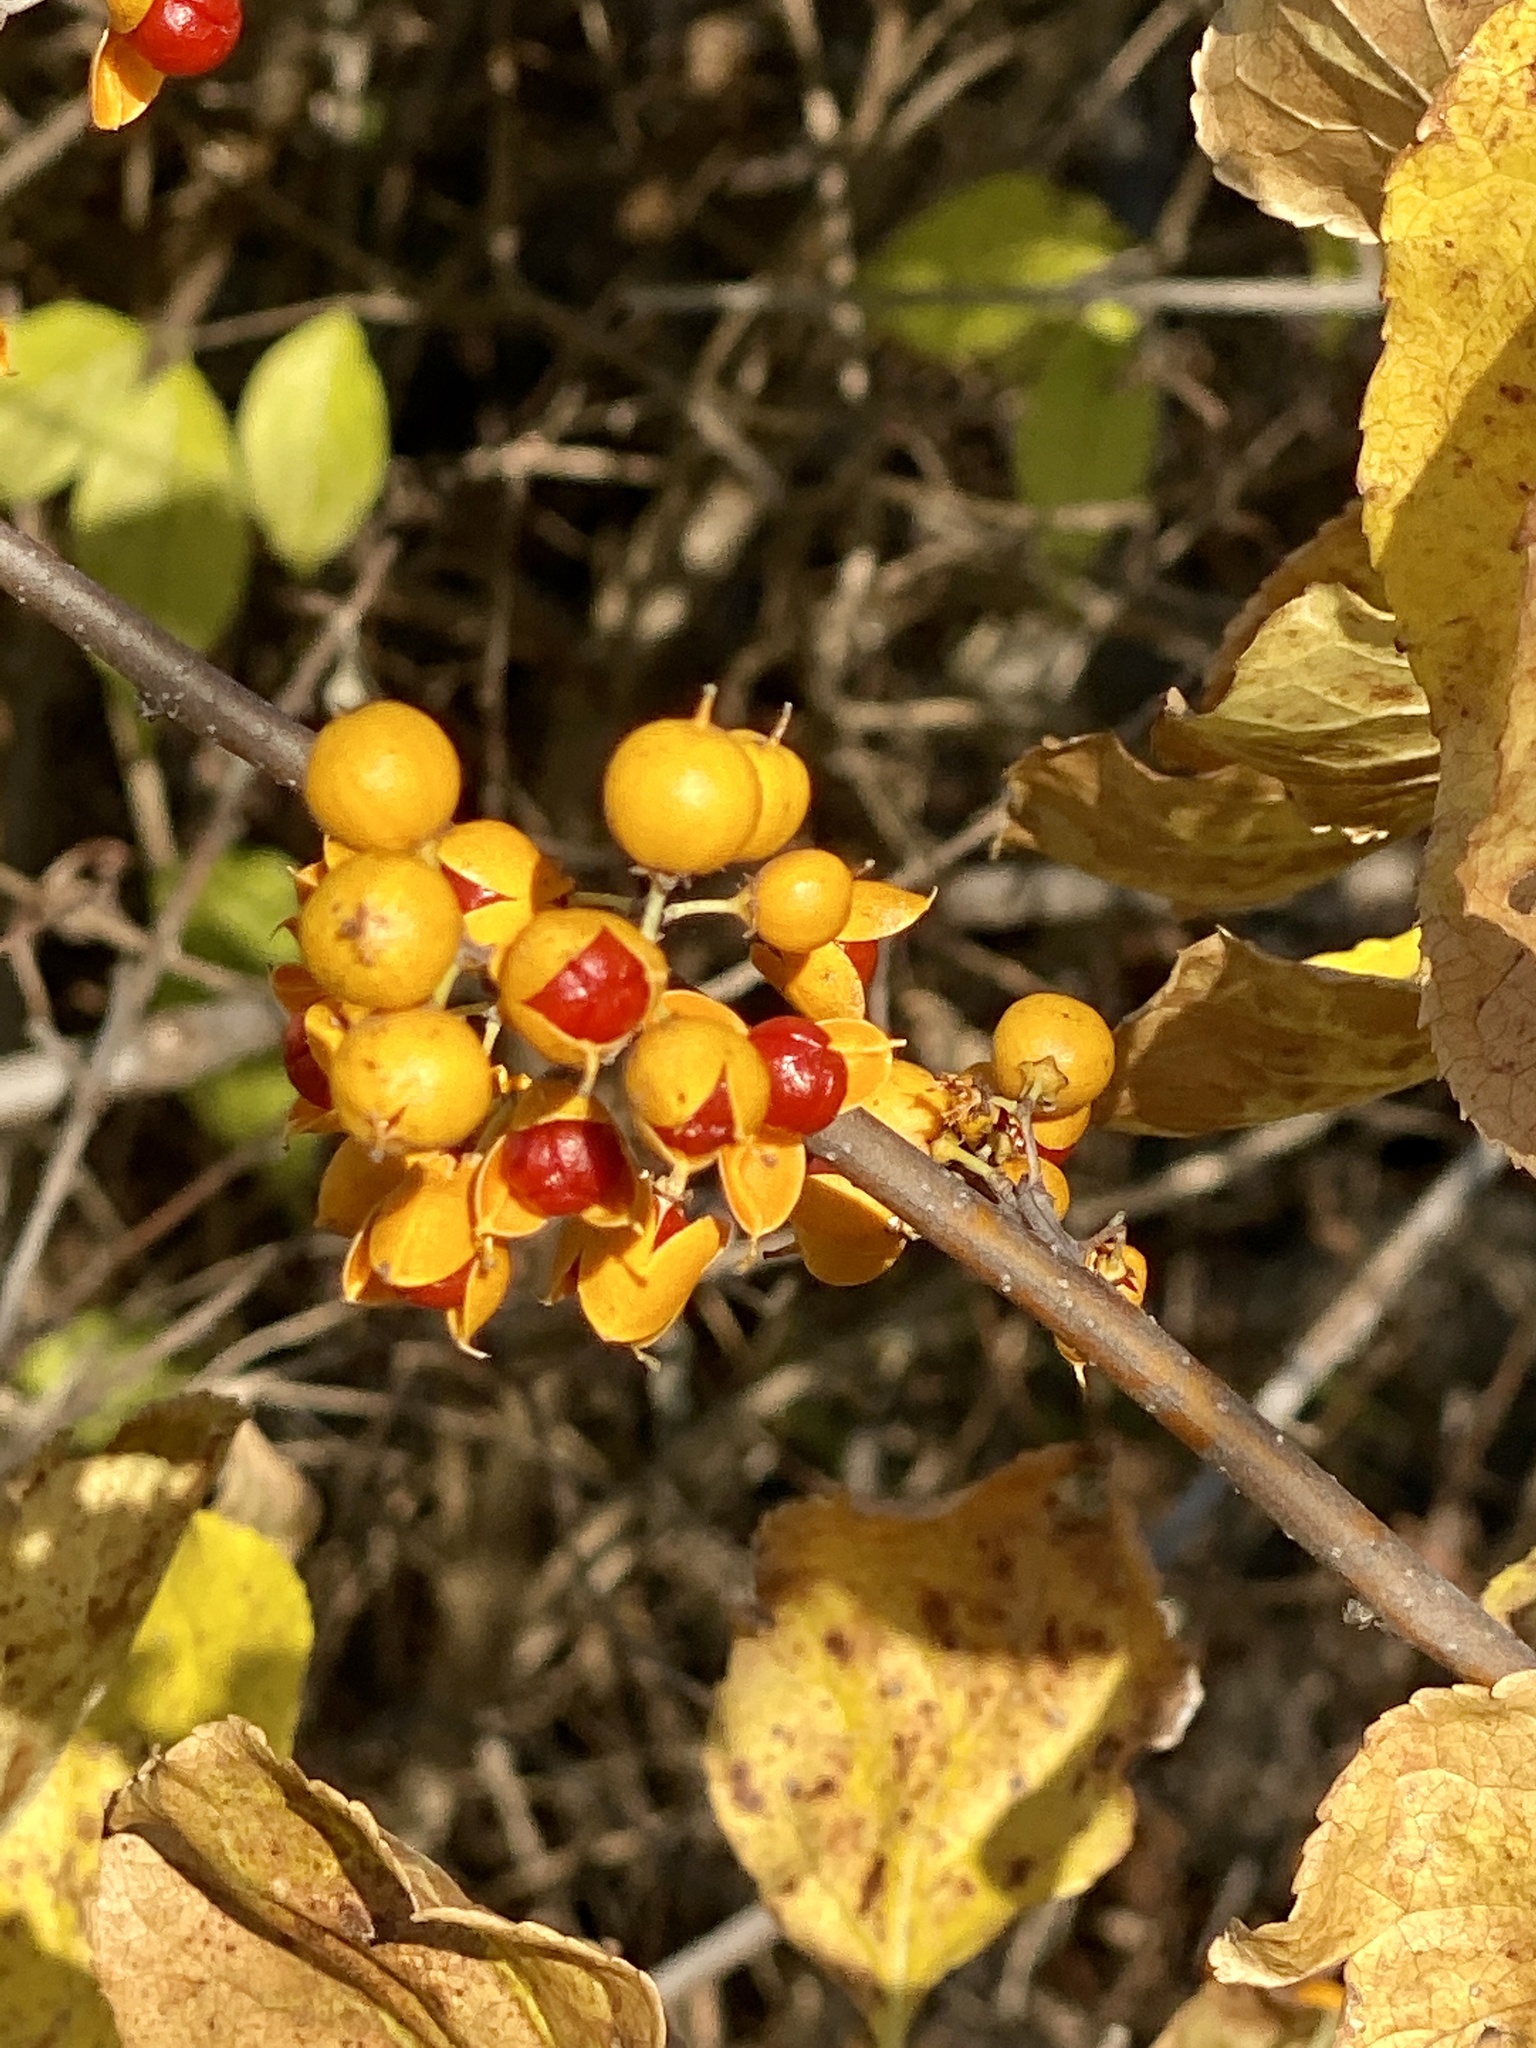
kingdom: Plantae
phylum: Tracheophyta
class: Magnoliopsida
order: Celastrales
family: Celastraceae
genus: Celastrus
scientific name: Celastrus orbiculatus
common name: Oriental bittersweet
